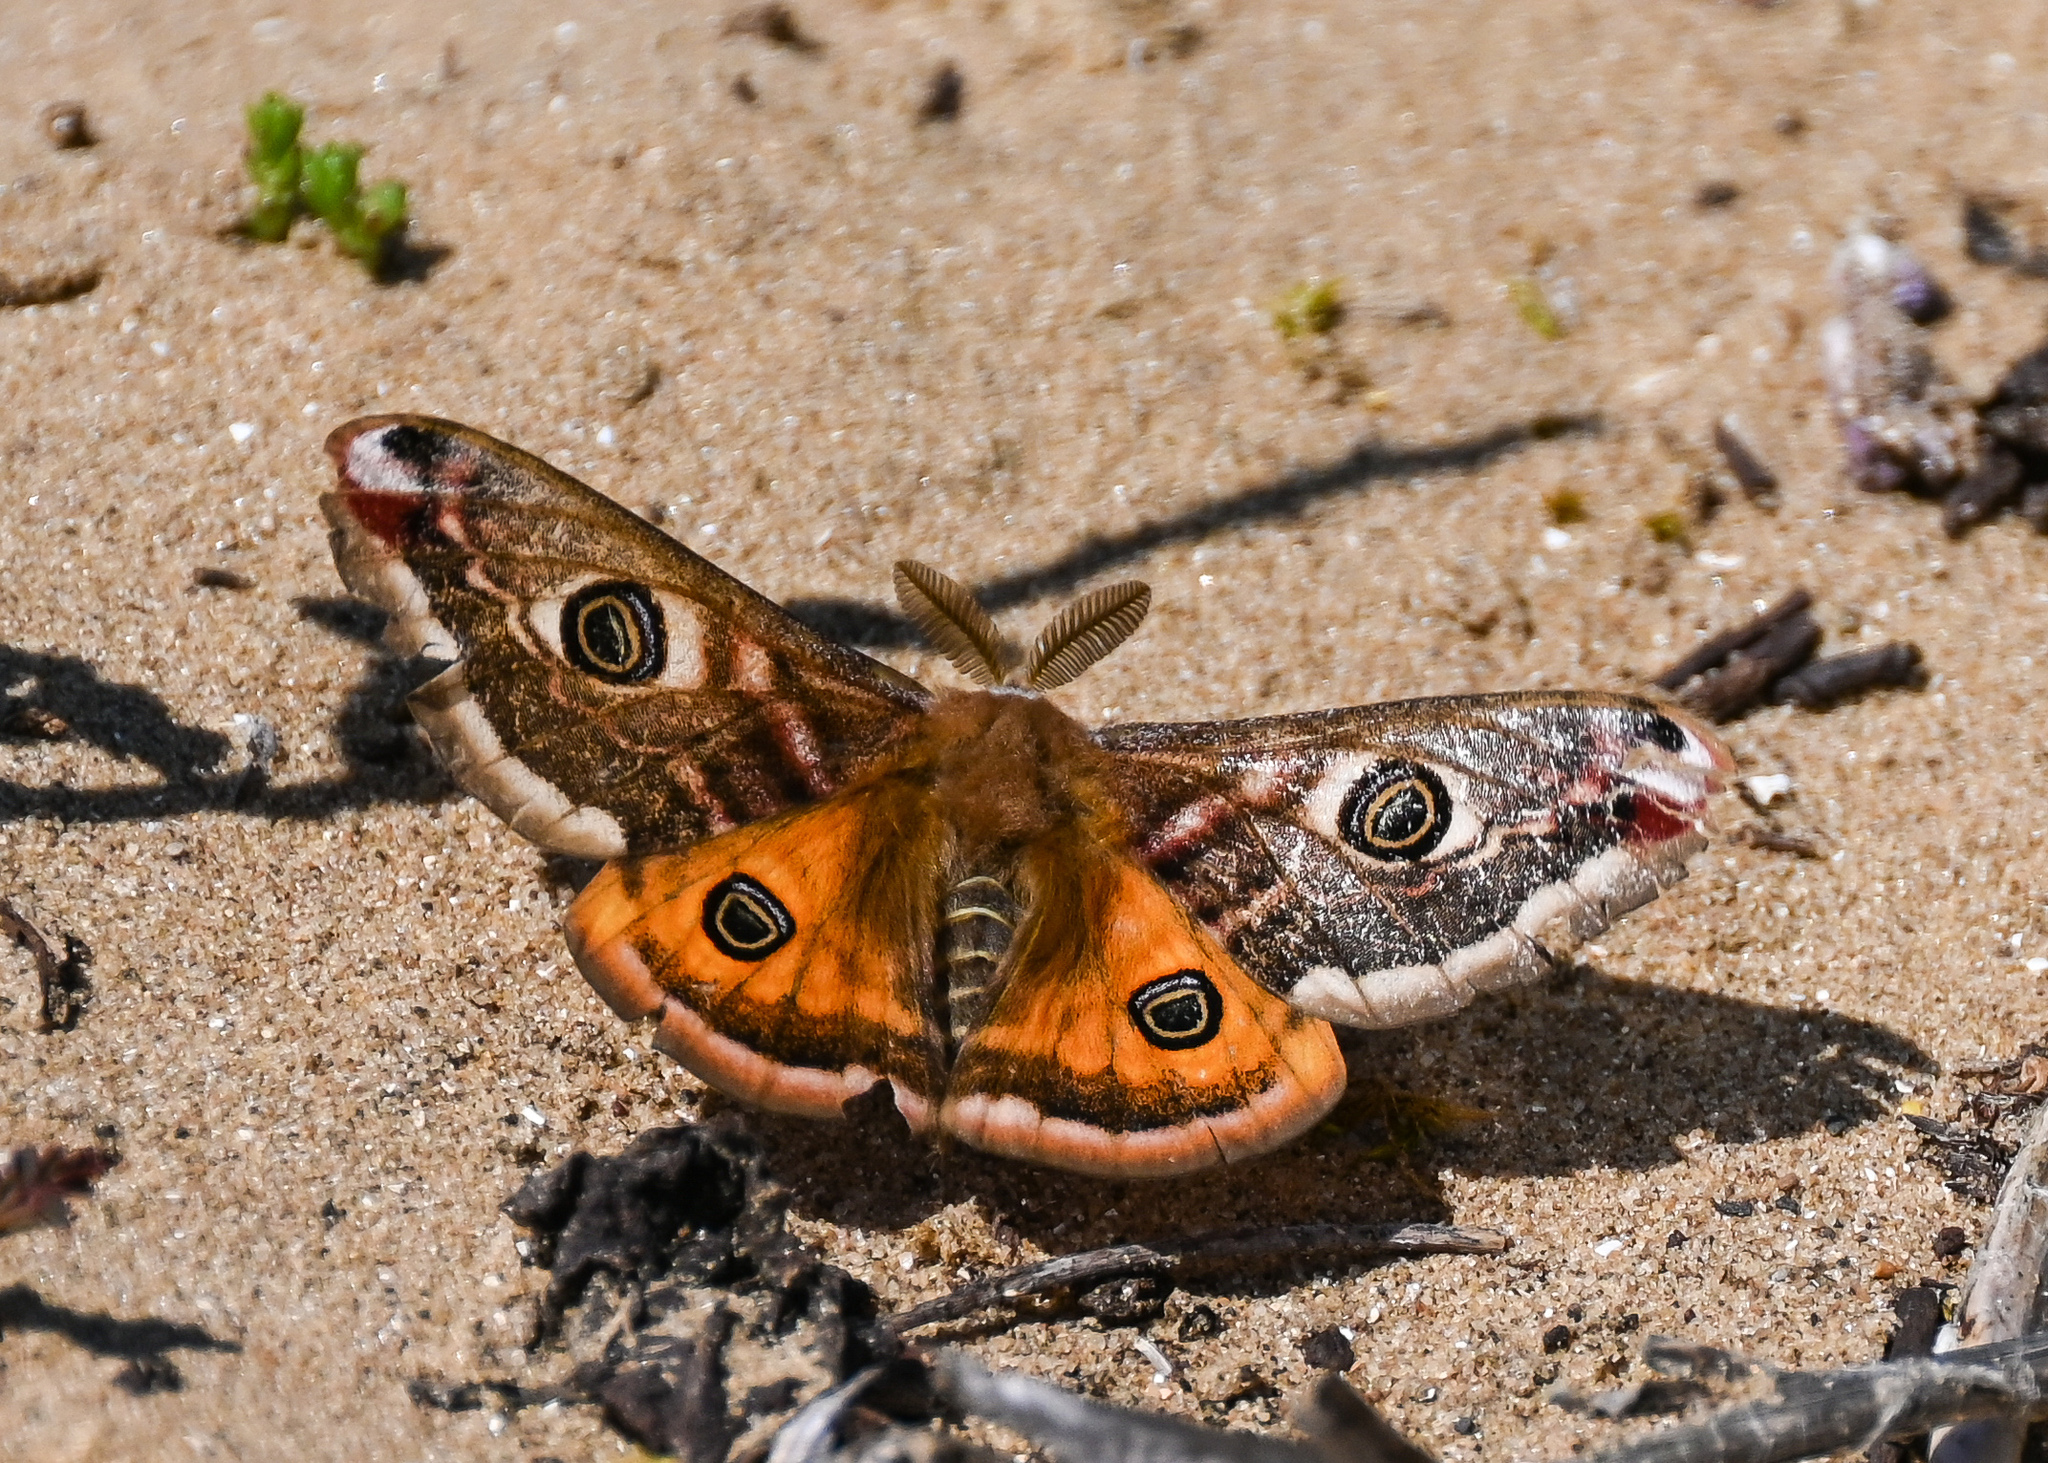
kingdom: Animalia
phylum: Arthropoda
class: Insecta
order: Lepidoptera
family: Saturniidae
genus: Saturnia
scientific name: Saturnia pavonia
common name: Emperor moth
